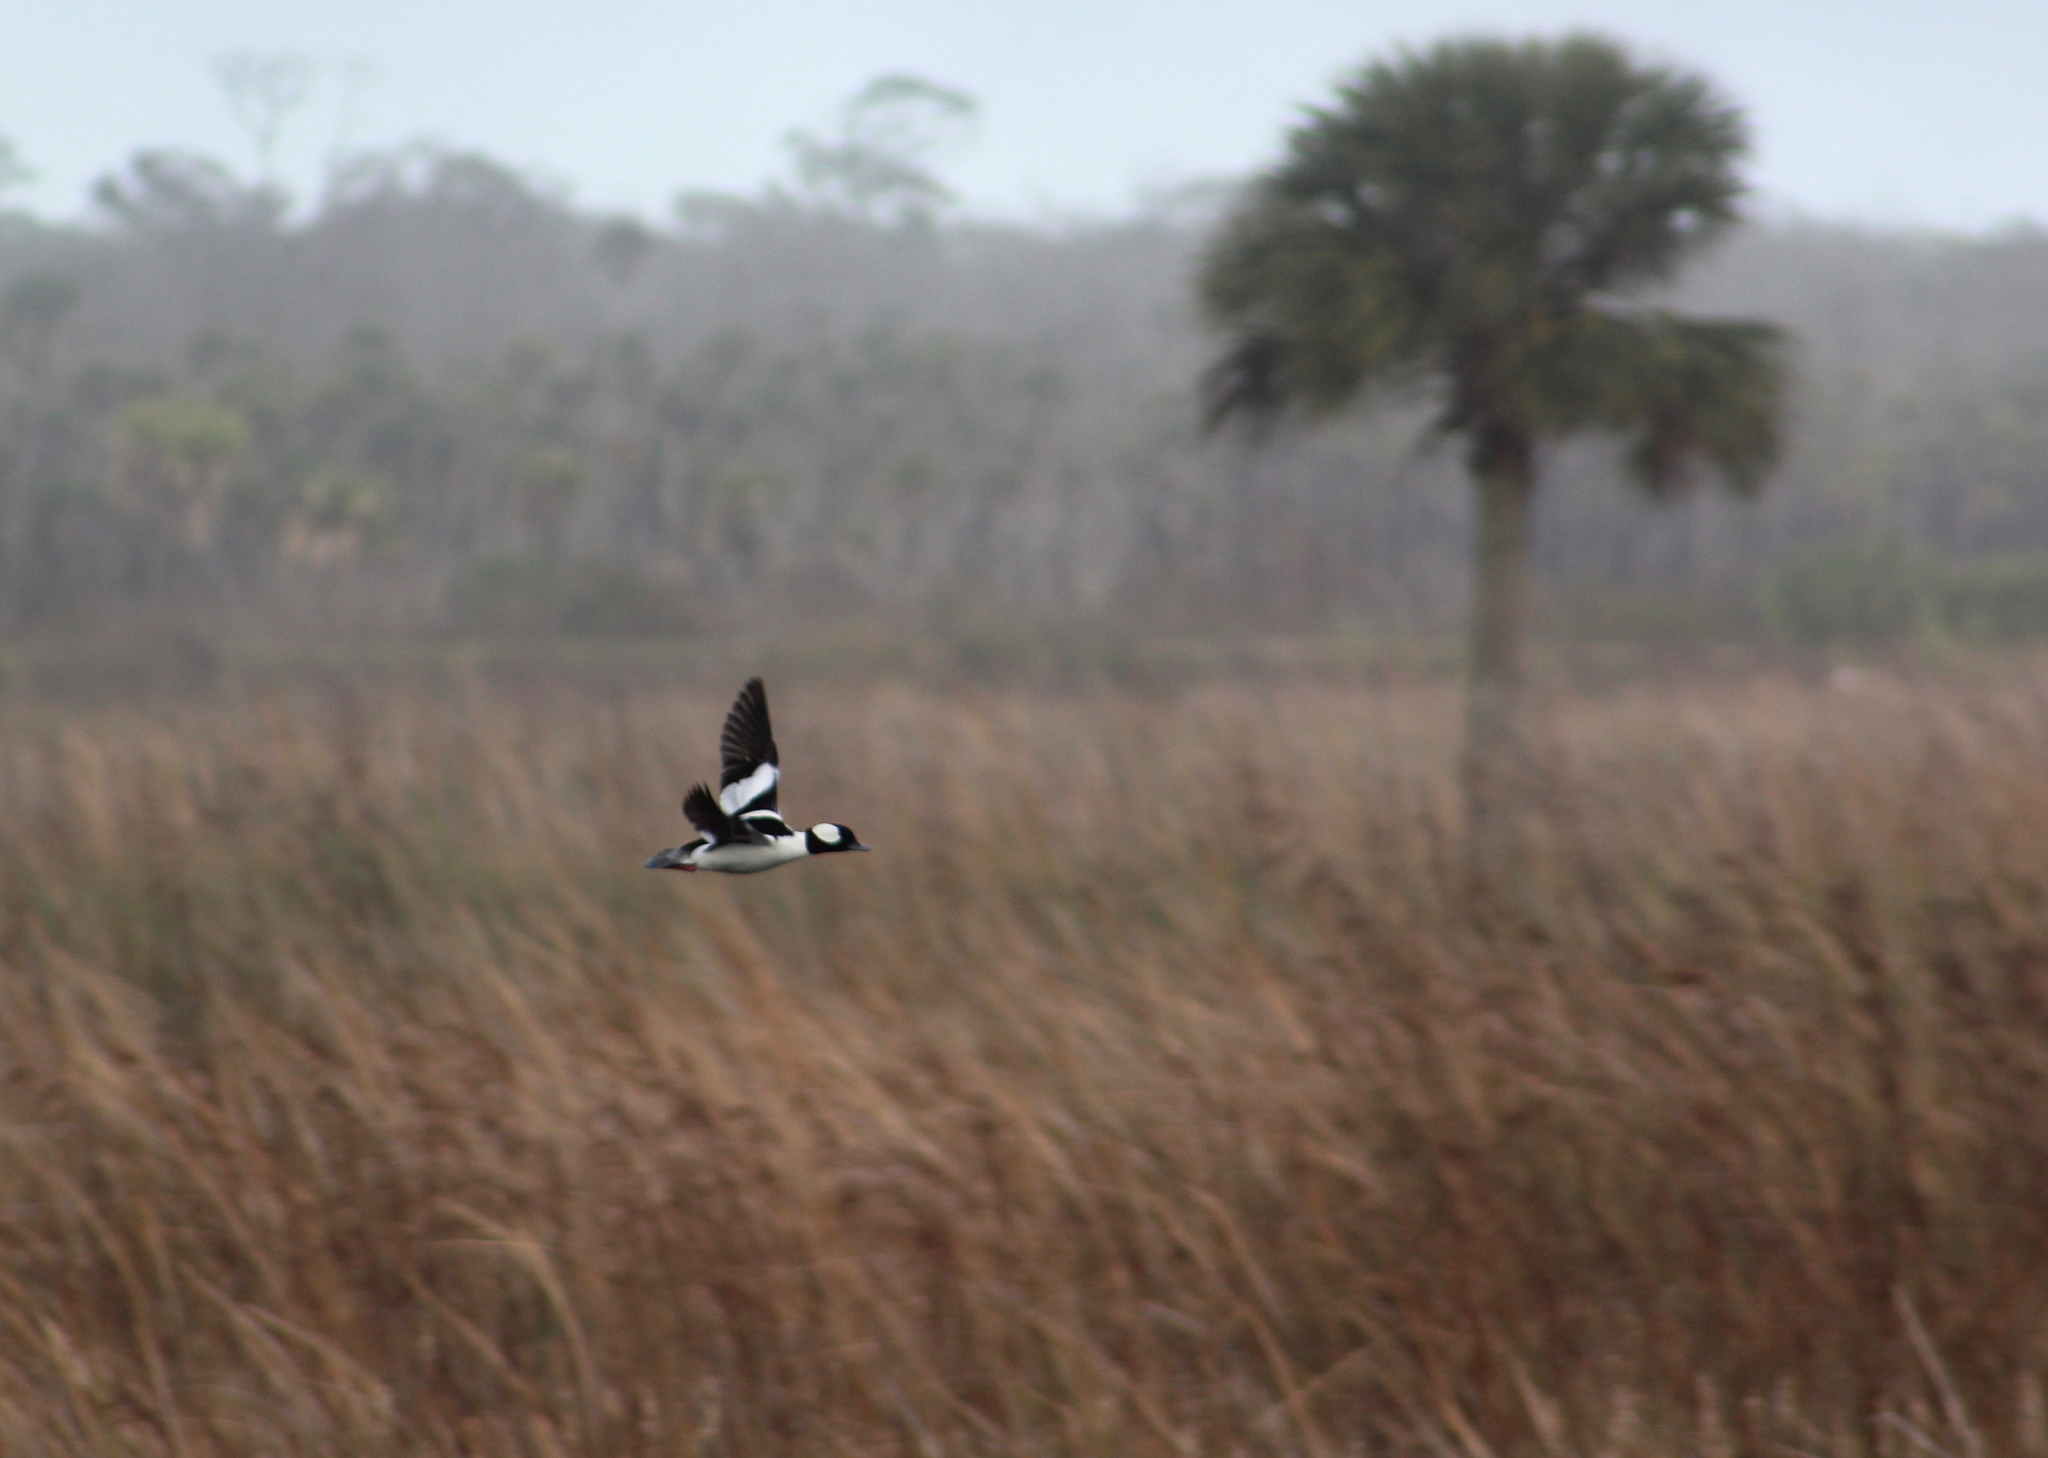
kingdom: Animalia
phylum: Chordata
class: Aves
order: Anseriformes
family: Anatidae
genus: Bucephala
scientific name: Bucephala albeola
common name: Bufflehead
